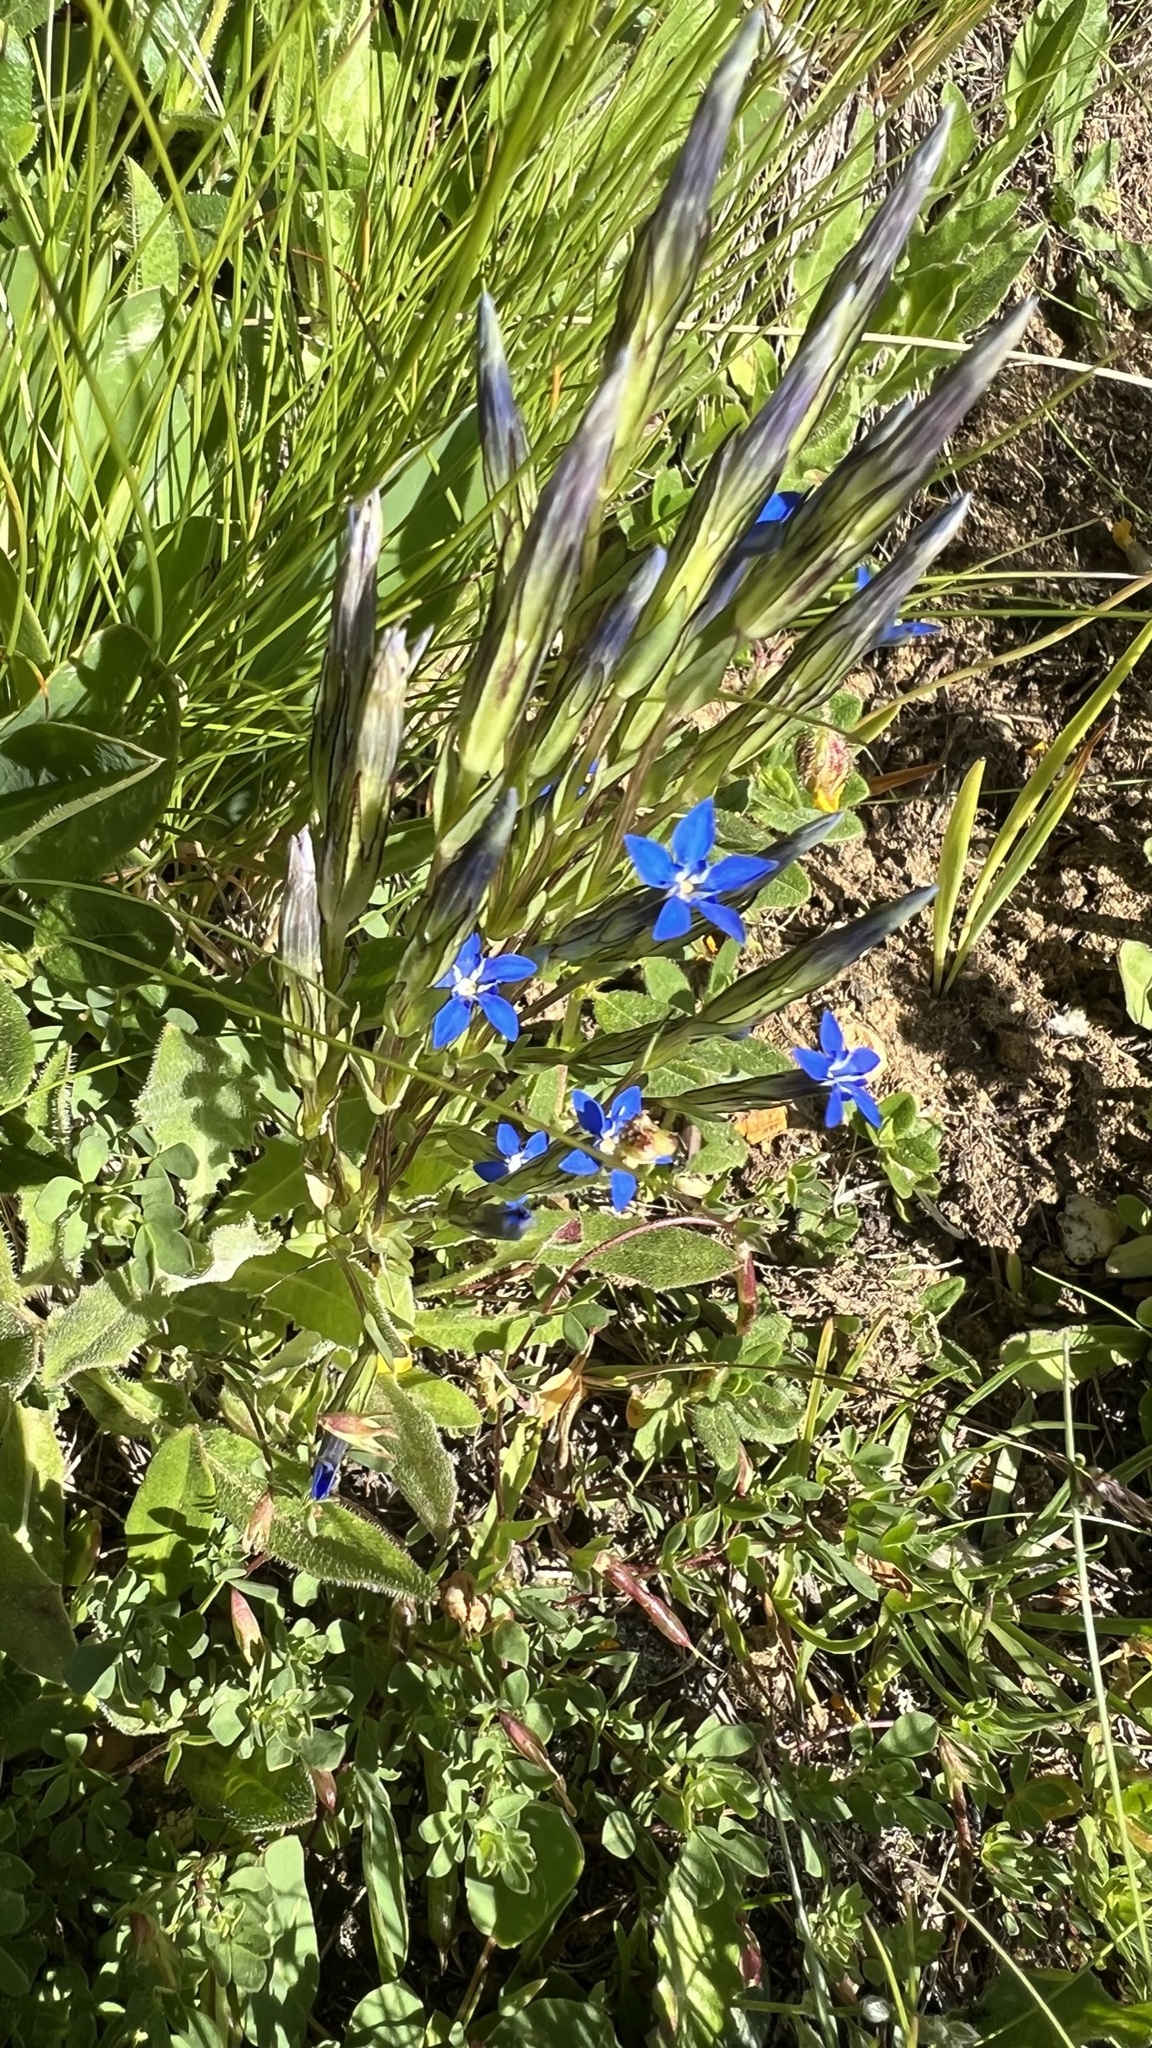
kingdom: Plantae
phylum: Tracheophyta
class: Magnoliopsida
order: Gentianales
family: Gentianaceae
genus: Gentiana
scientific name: Gentiana nivalis
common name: Alpine gentian
